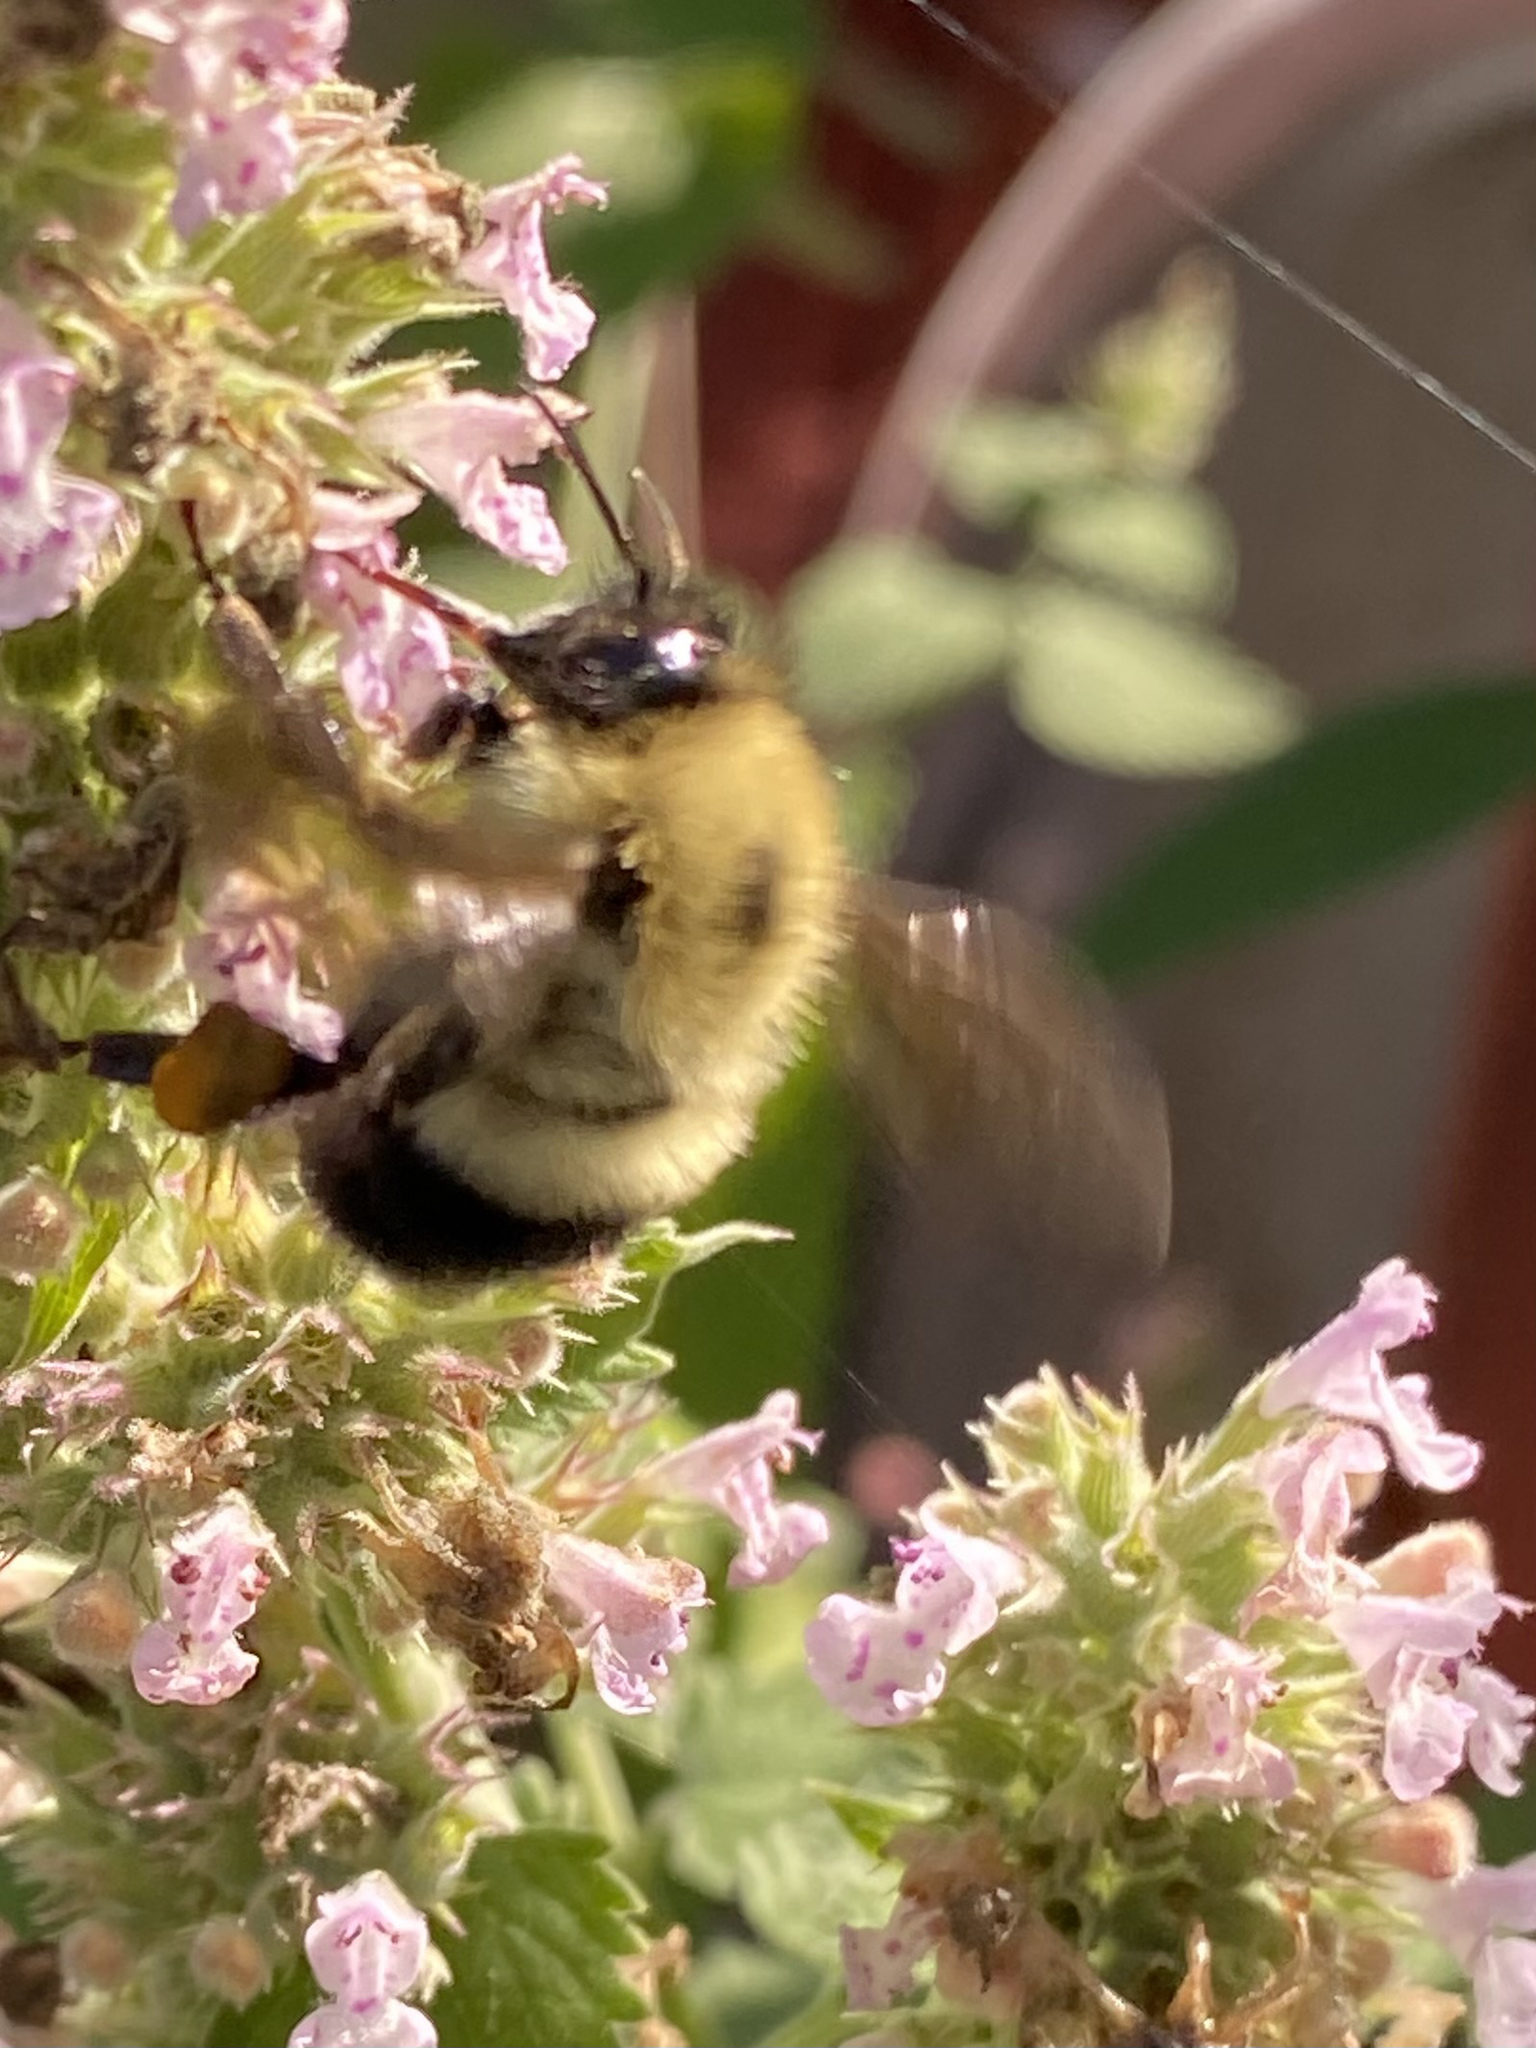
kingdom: Animalia
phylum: Arthropoda
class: Insecta
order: Hymenoptera
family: Apidae
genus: Pyrobombus
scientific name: Pyrobombus
